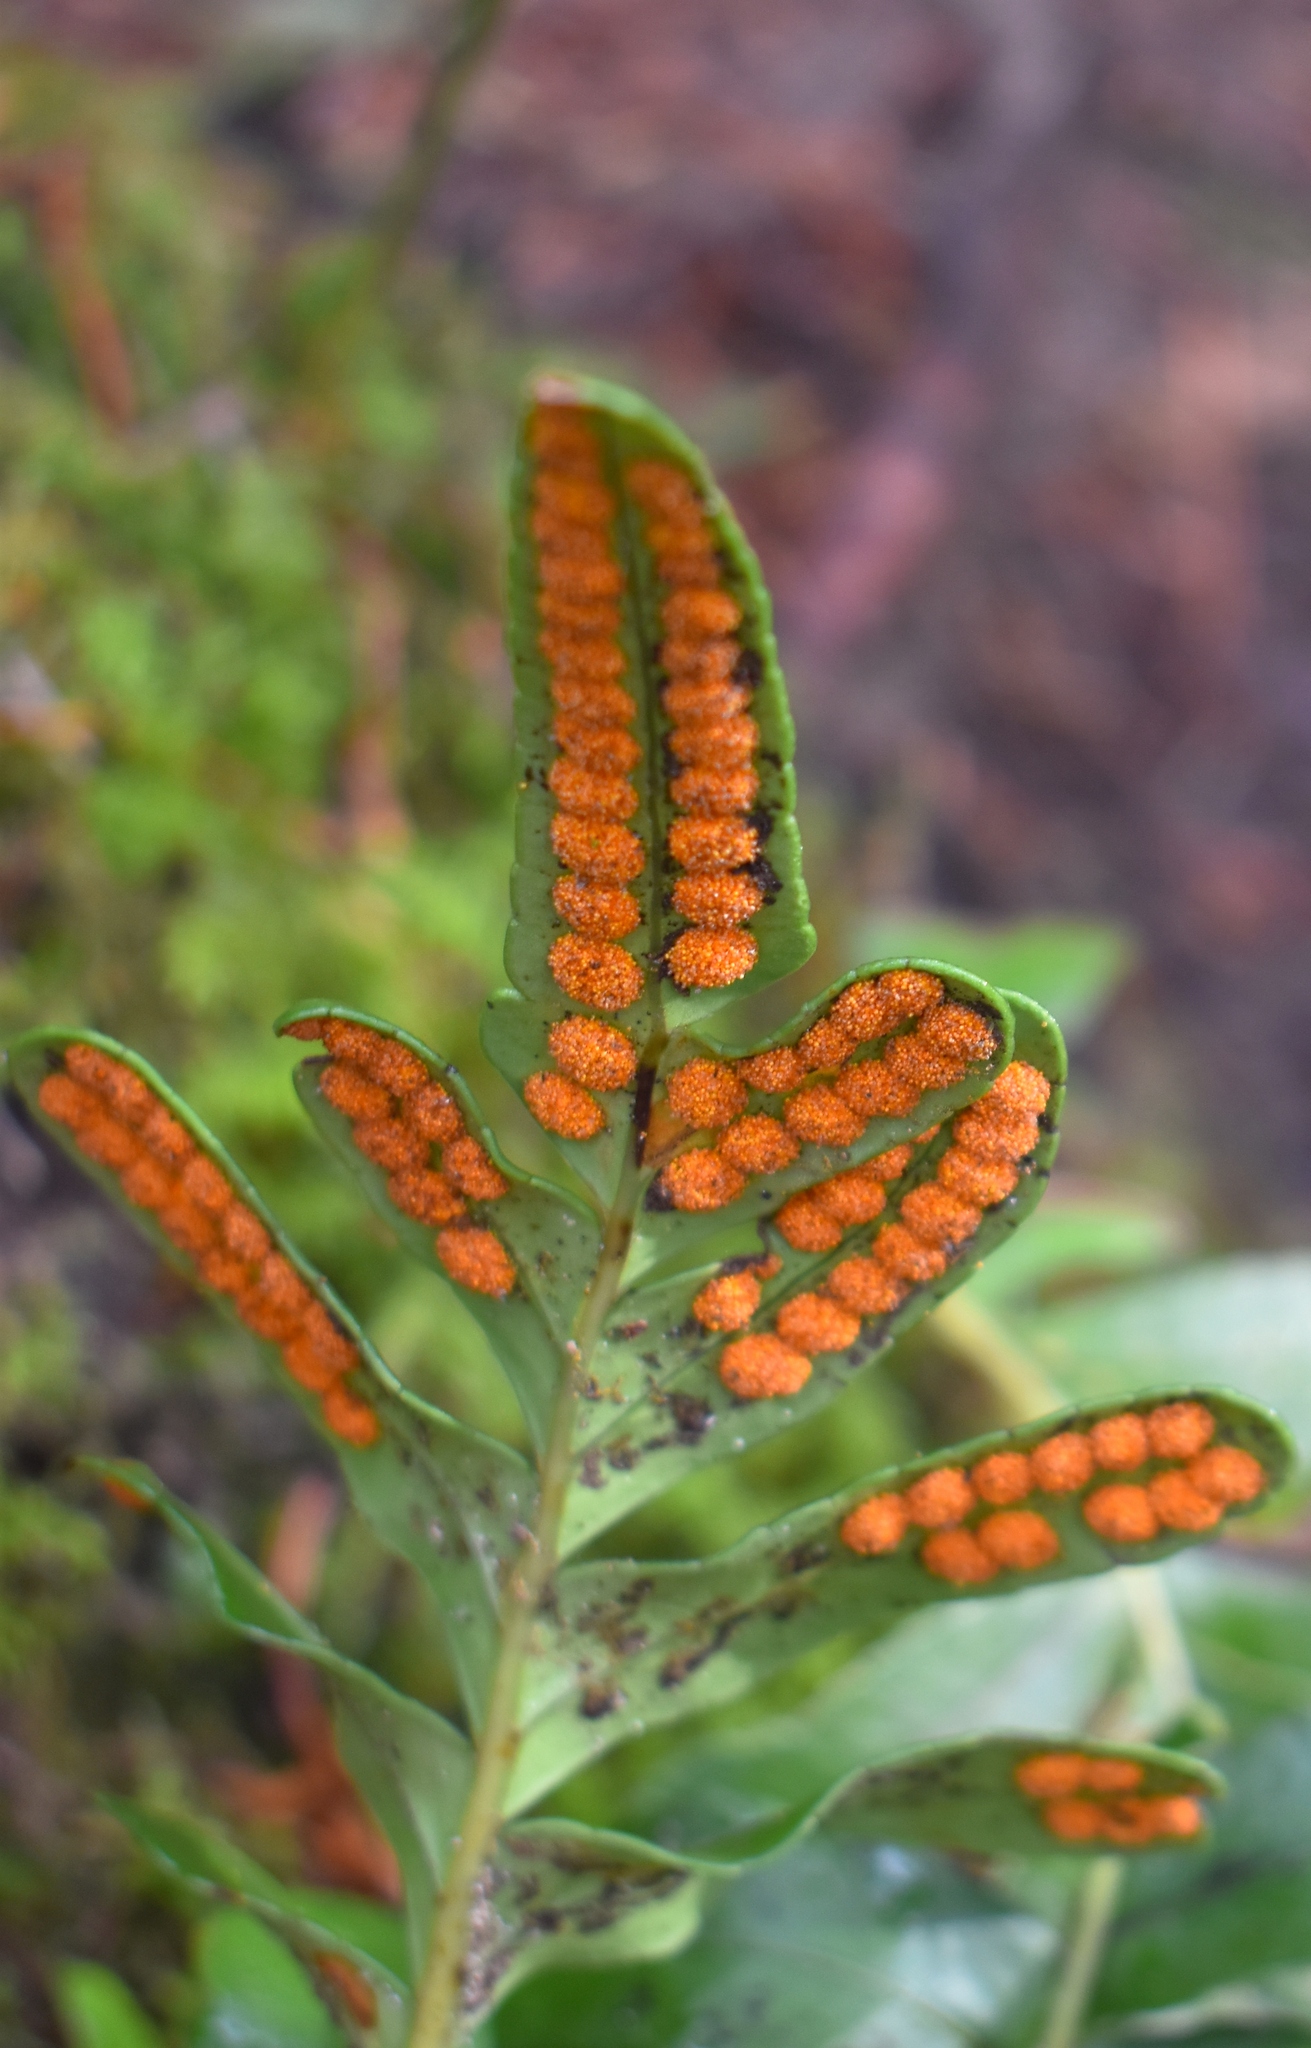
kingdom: Plantae
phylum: Tracheophyta
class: Polypodiopsida
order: Polypodiales
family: Polypodiaceae
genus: Polypodium
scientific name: Polypodium scouleri
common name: Scouler's polypody
